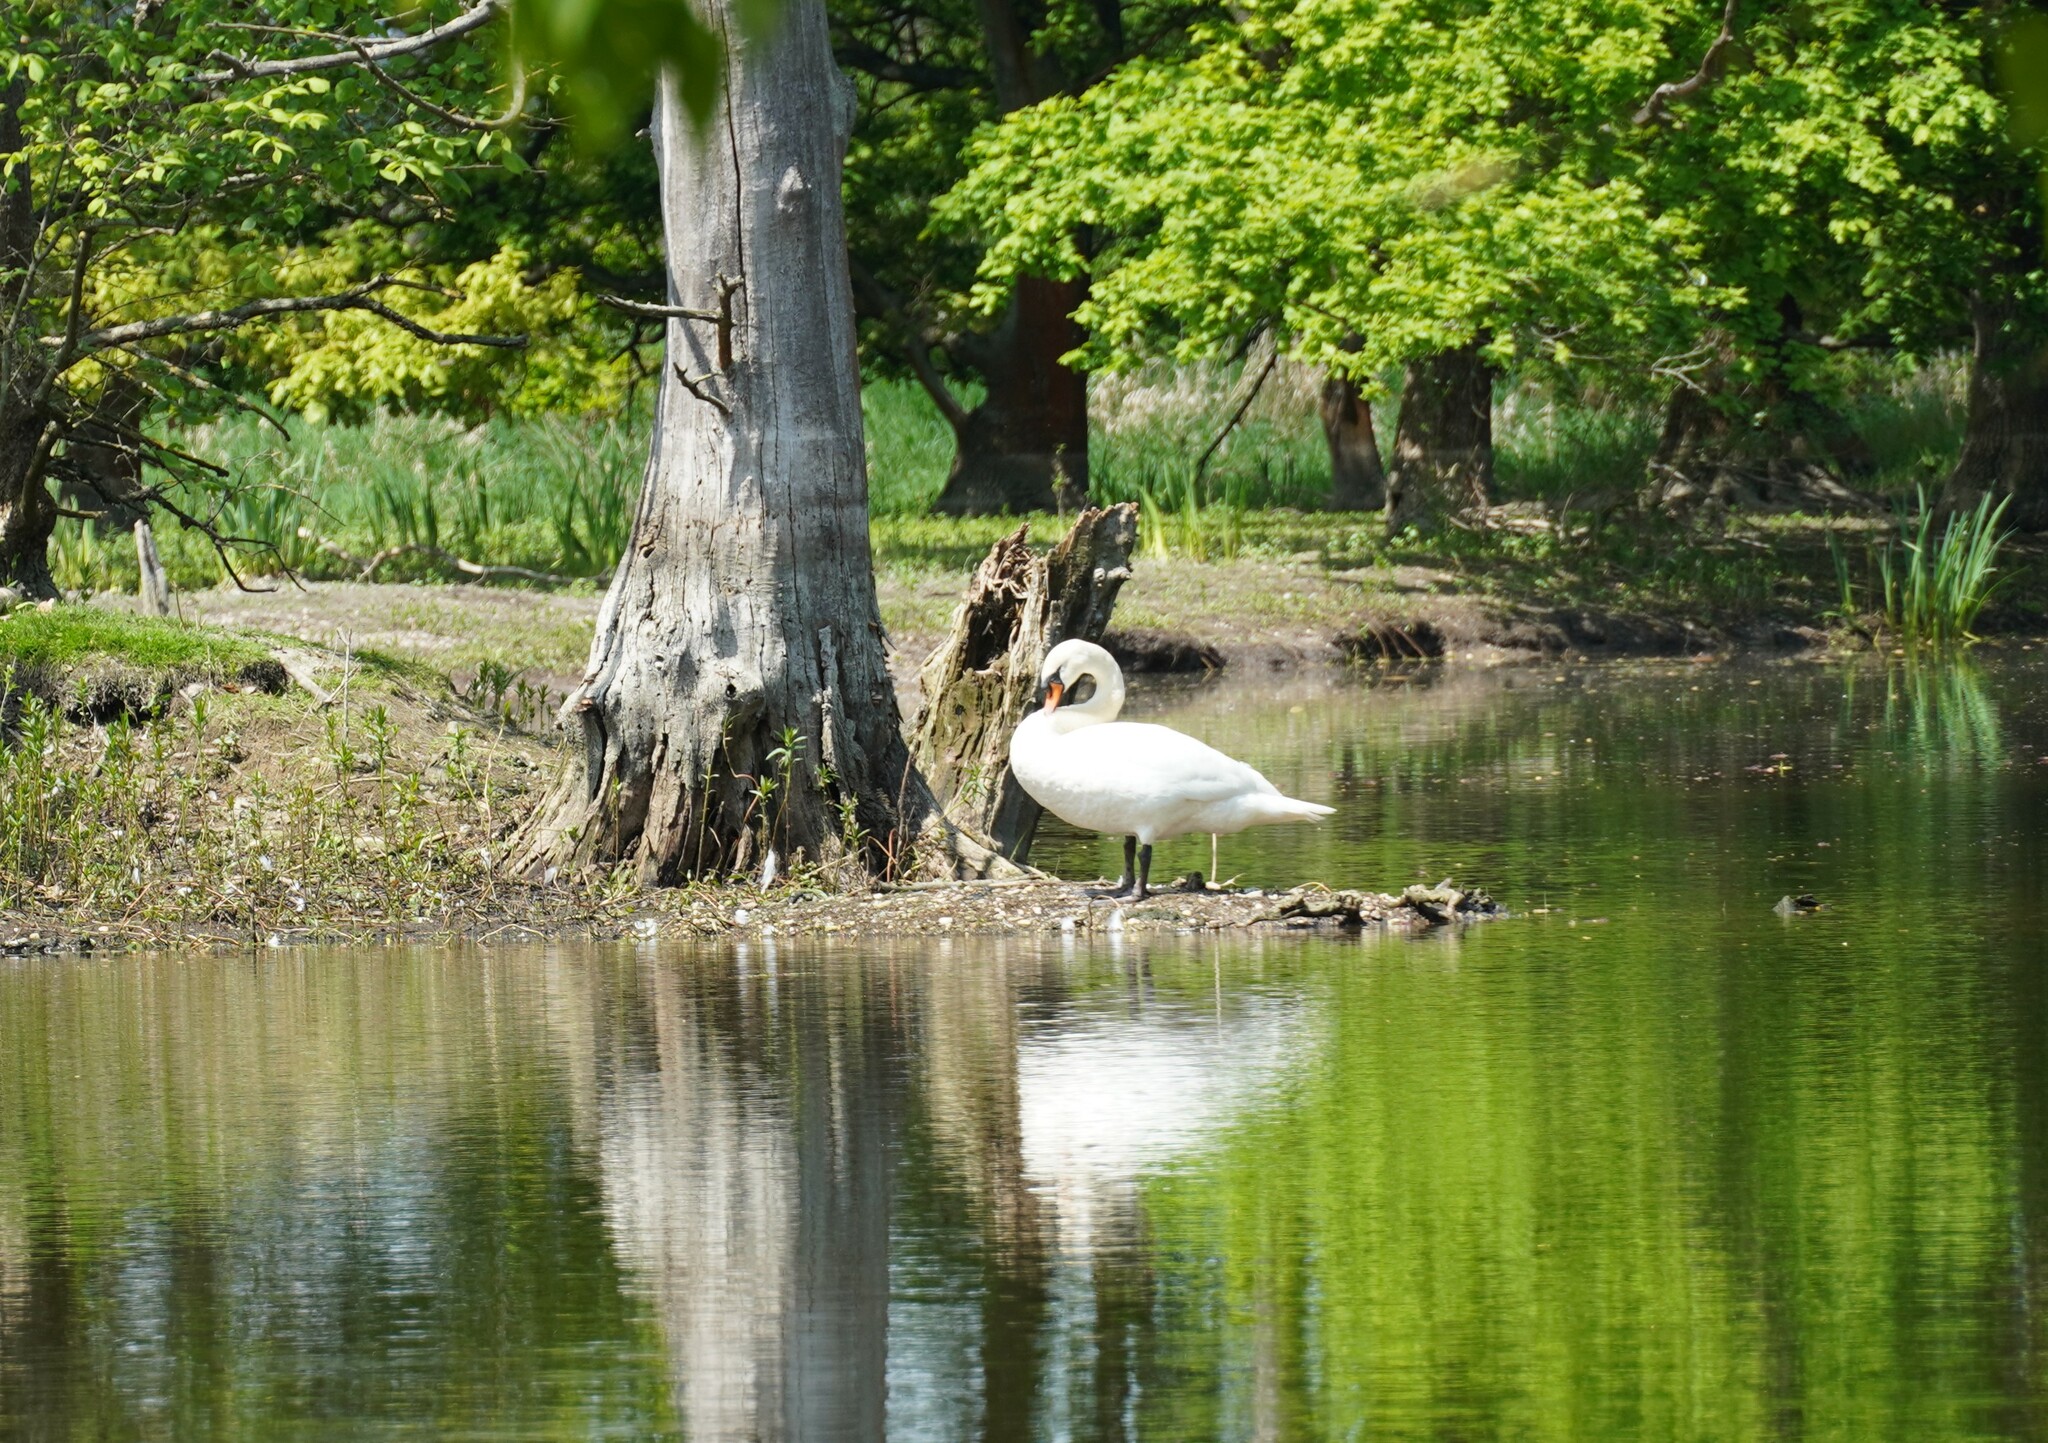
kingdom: Animalia
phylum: Chordata
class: Aves
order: Anseriformes
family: Anatidae
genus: Cygnus
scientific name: Cygnus olor
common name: Mute swan
